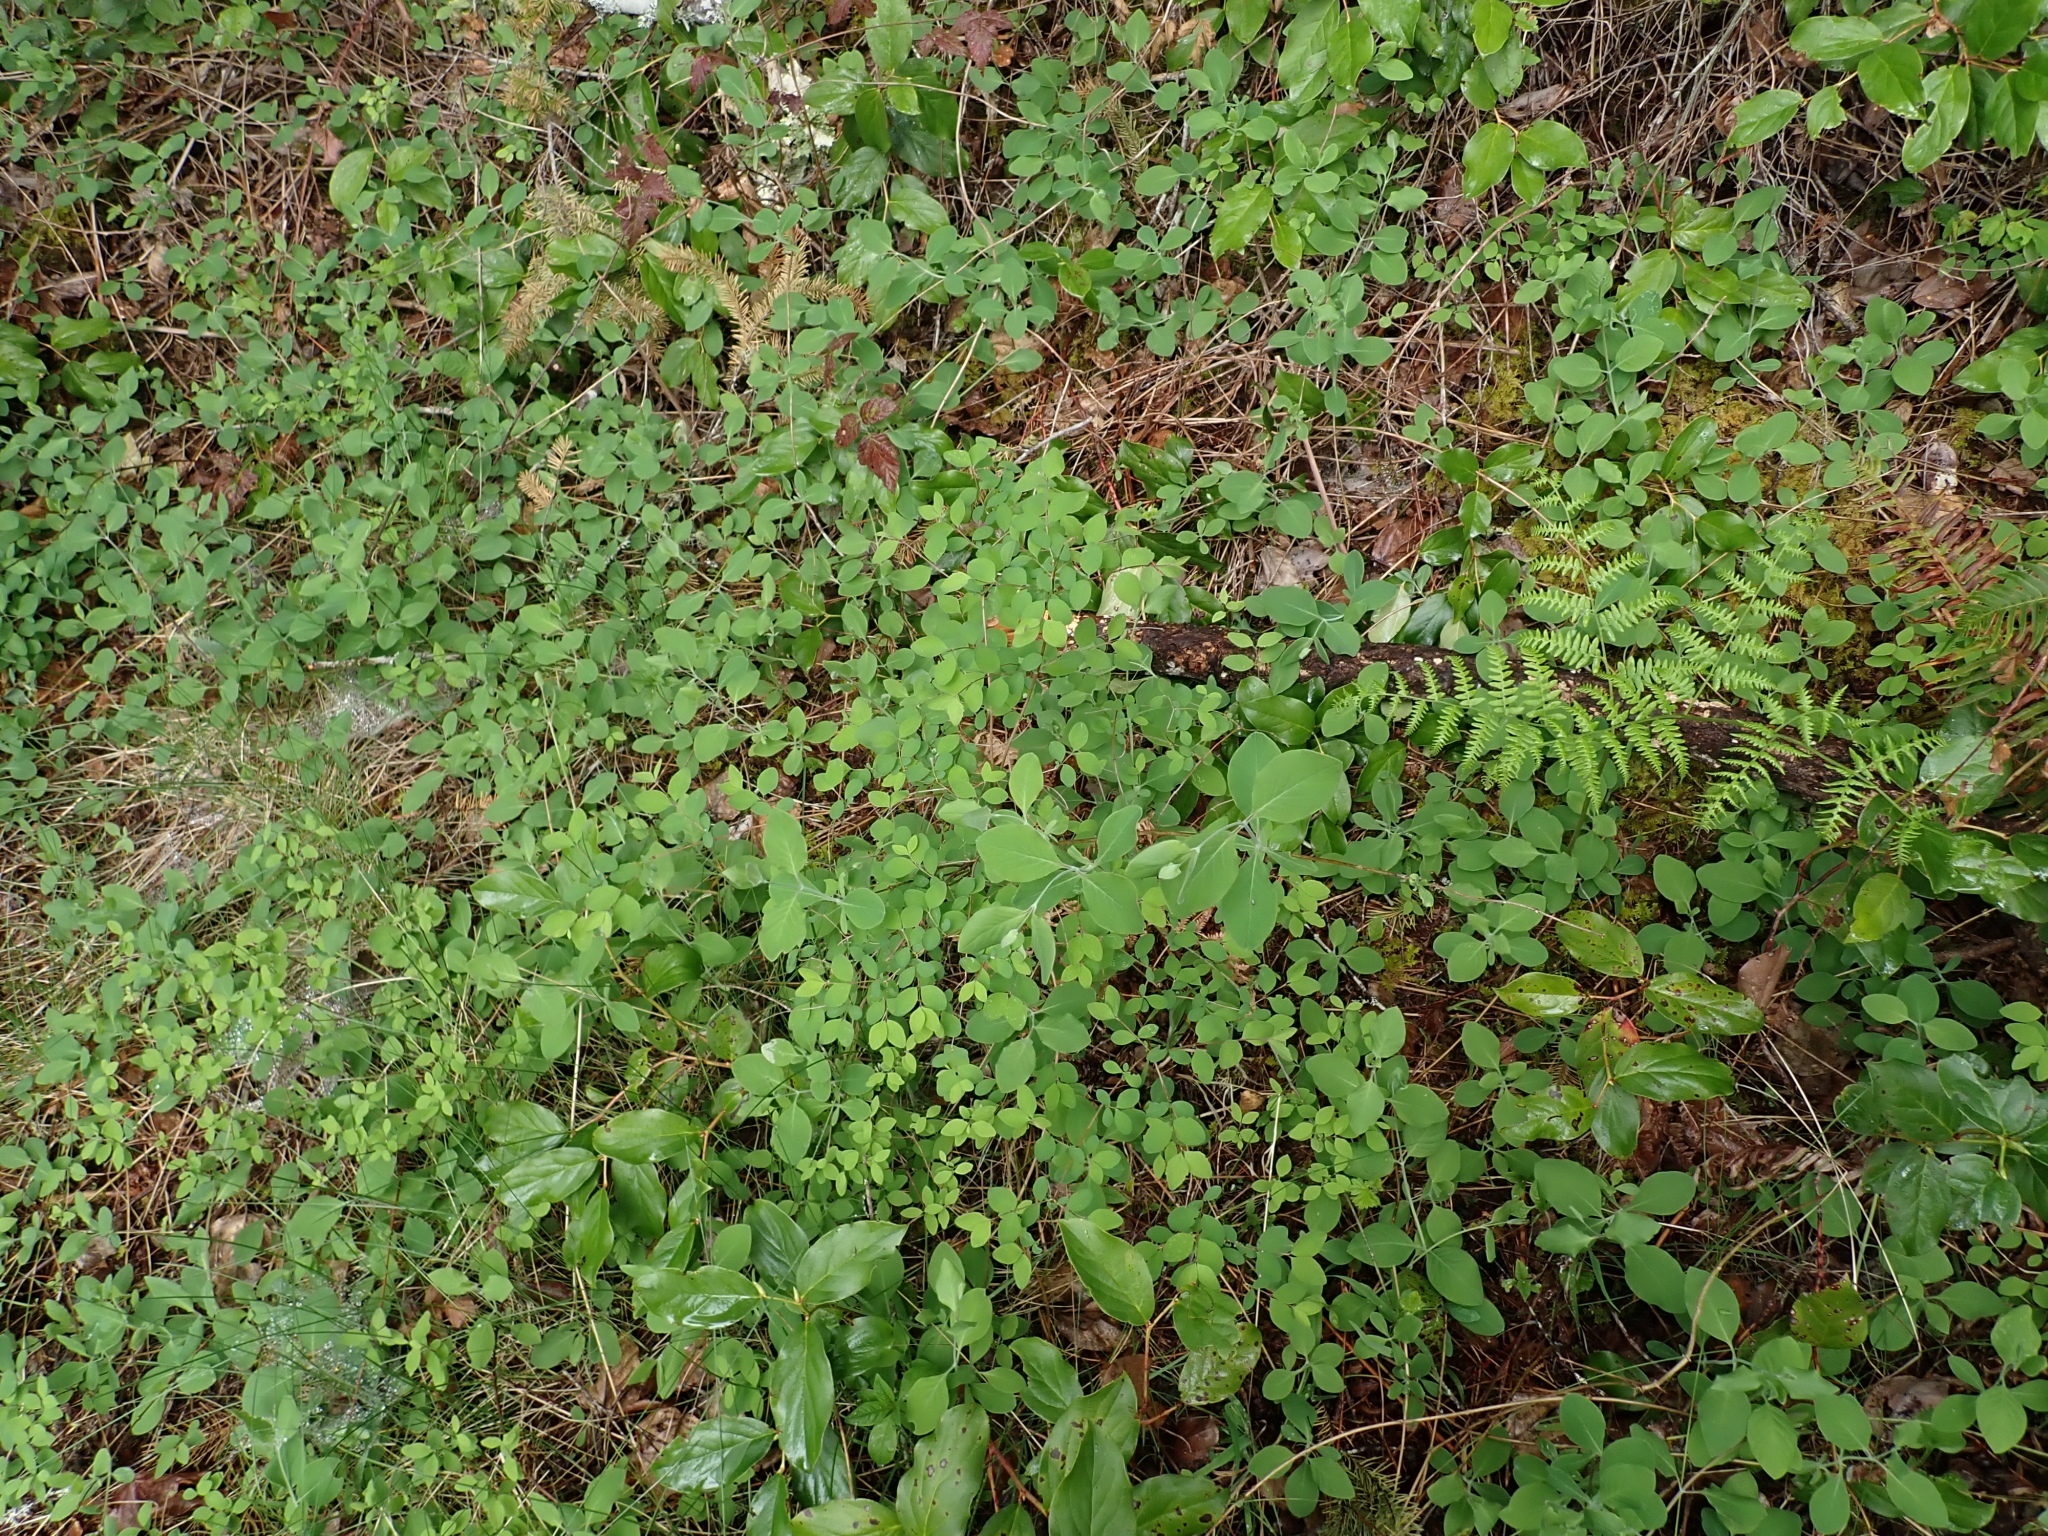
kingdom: Plantae
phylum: Tracheophyta
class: Magnoliopsida
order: Dipsacales
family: Caprifoliaceae
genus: Lonicera
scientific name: Lonicera ciliosa
